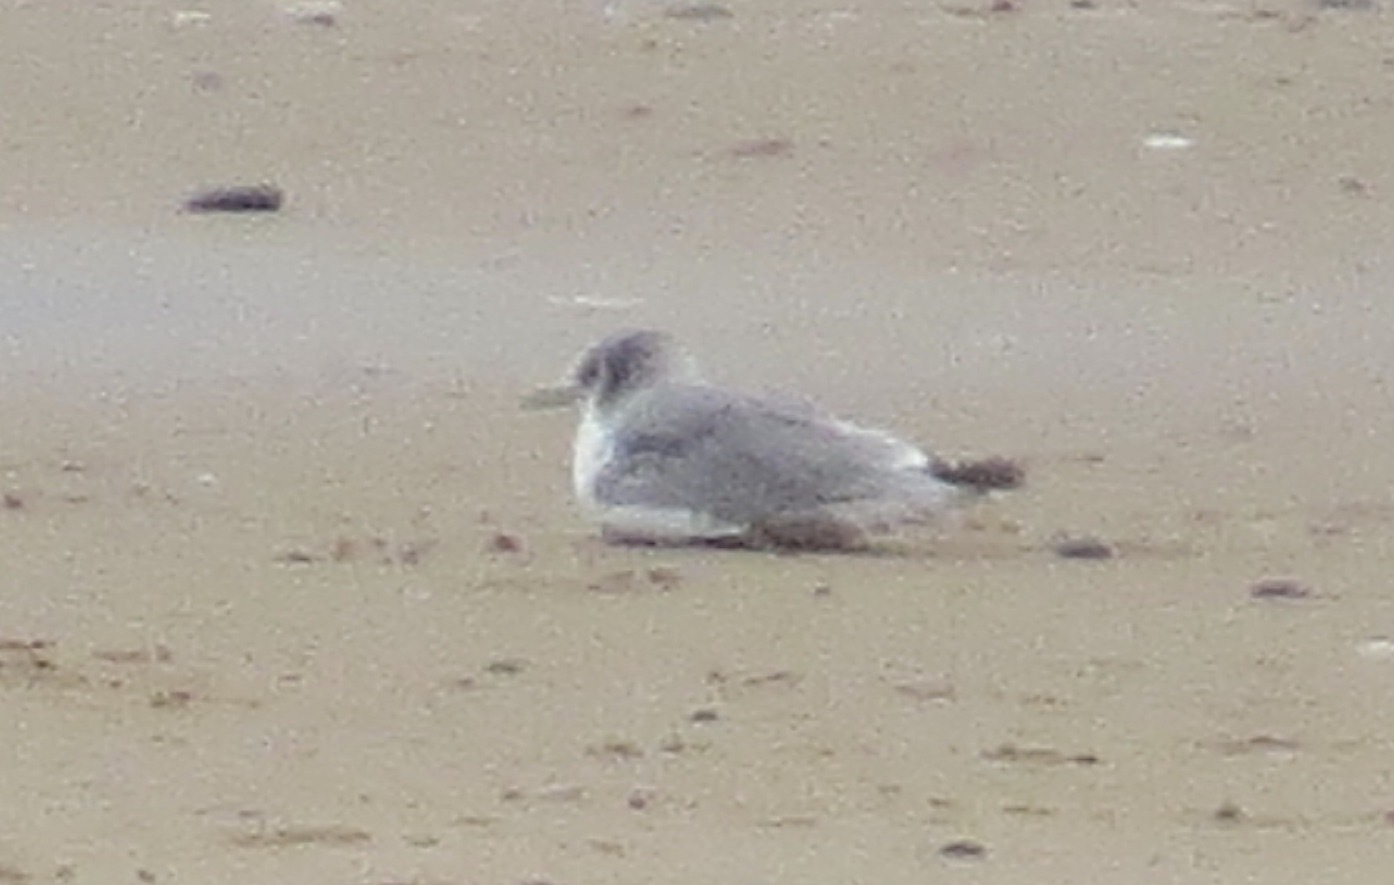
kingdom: Animalia
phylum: Chordata
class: Aves
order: Charadriiformes
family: Laridae
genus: Rissa
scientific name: Rissa tridactyla
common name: Black-legged kittiwake
